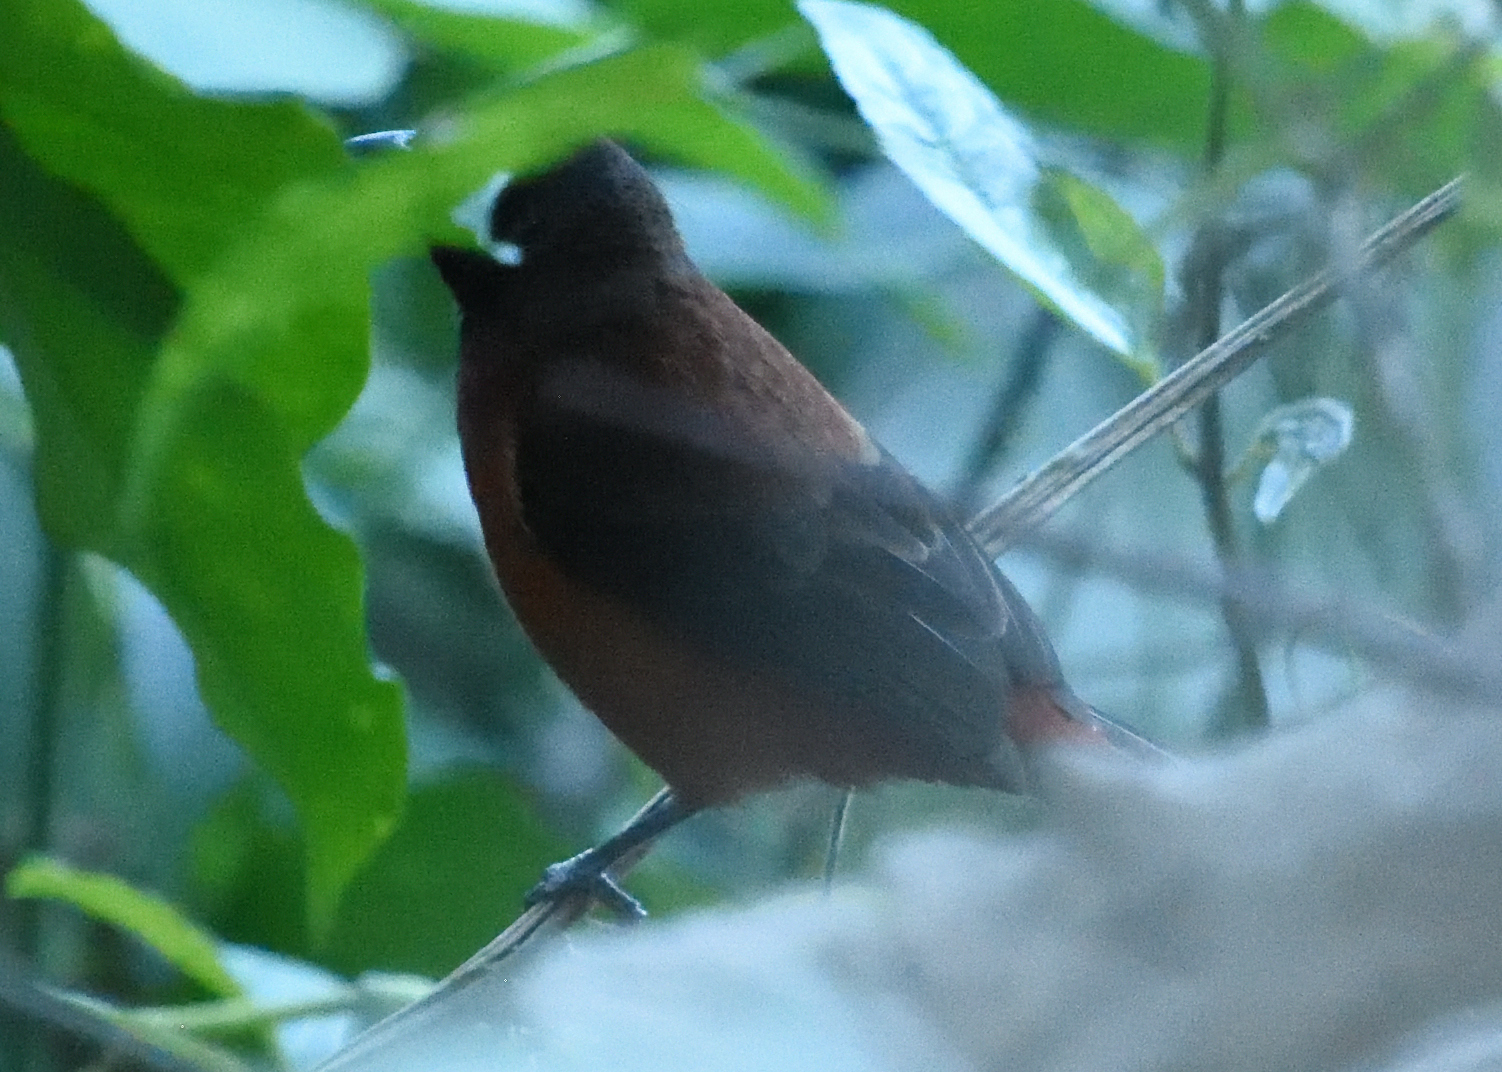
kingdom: Animalia
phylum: Chordata
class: Aves
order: Passeriformes
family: Thraupidae
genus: Ramphocelus
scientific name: Ramphocelus dimidiatus
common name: Crimson-backed tanager
